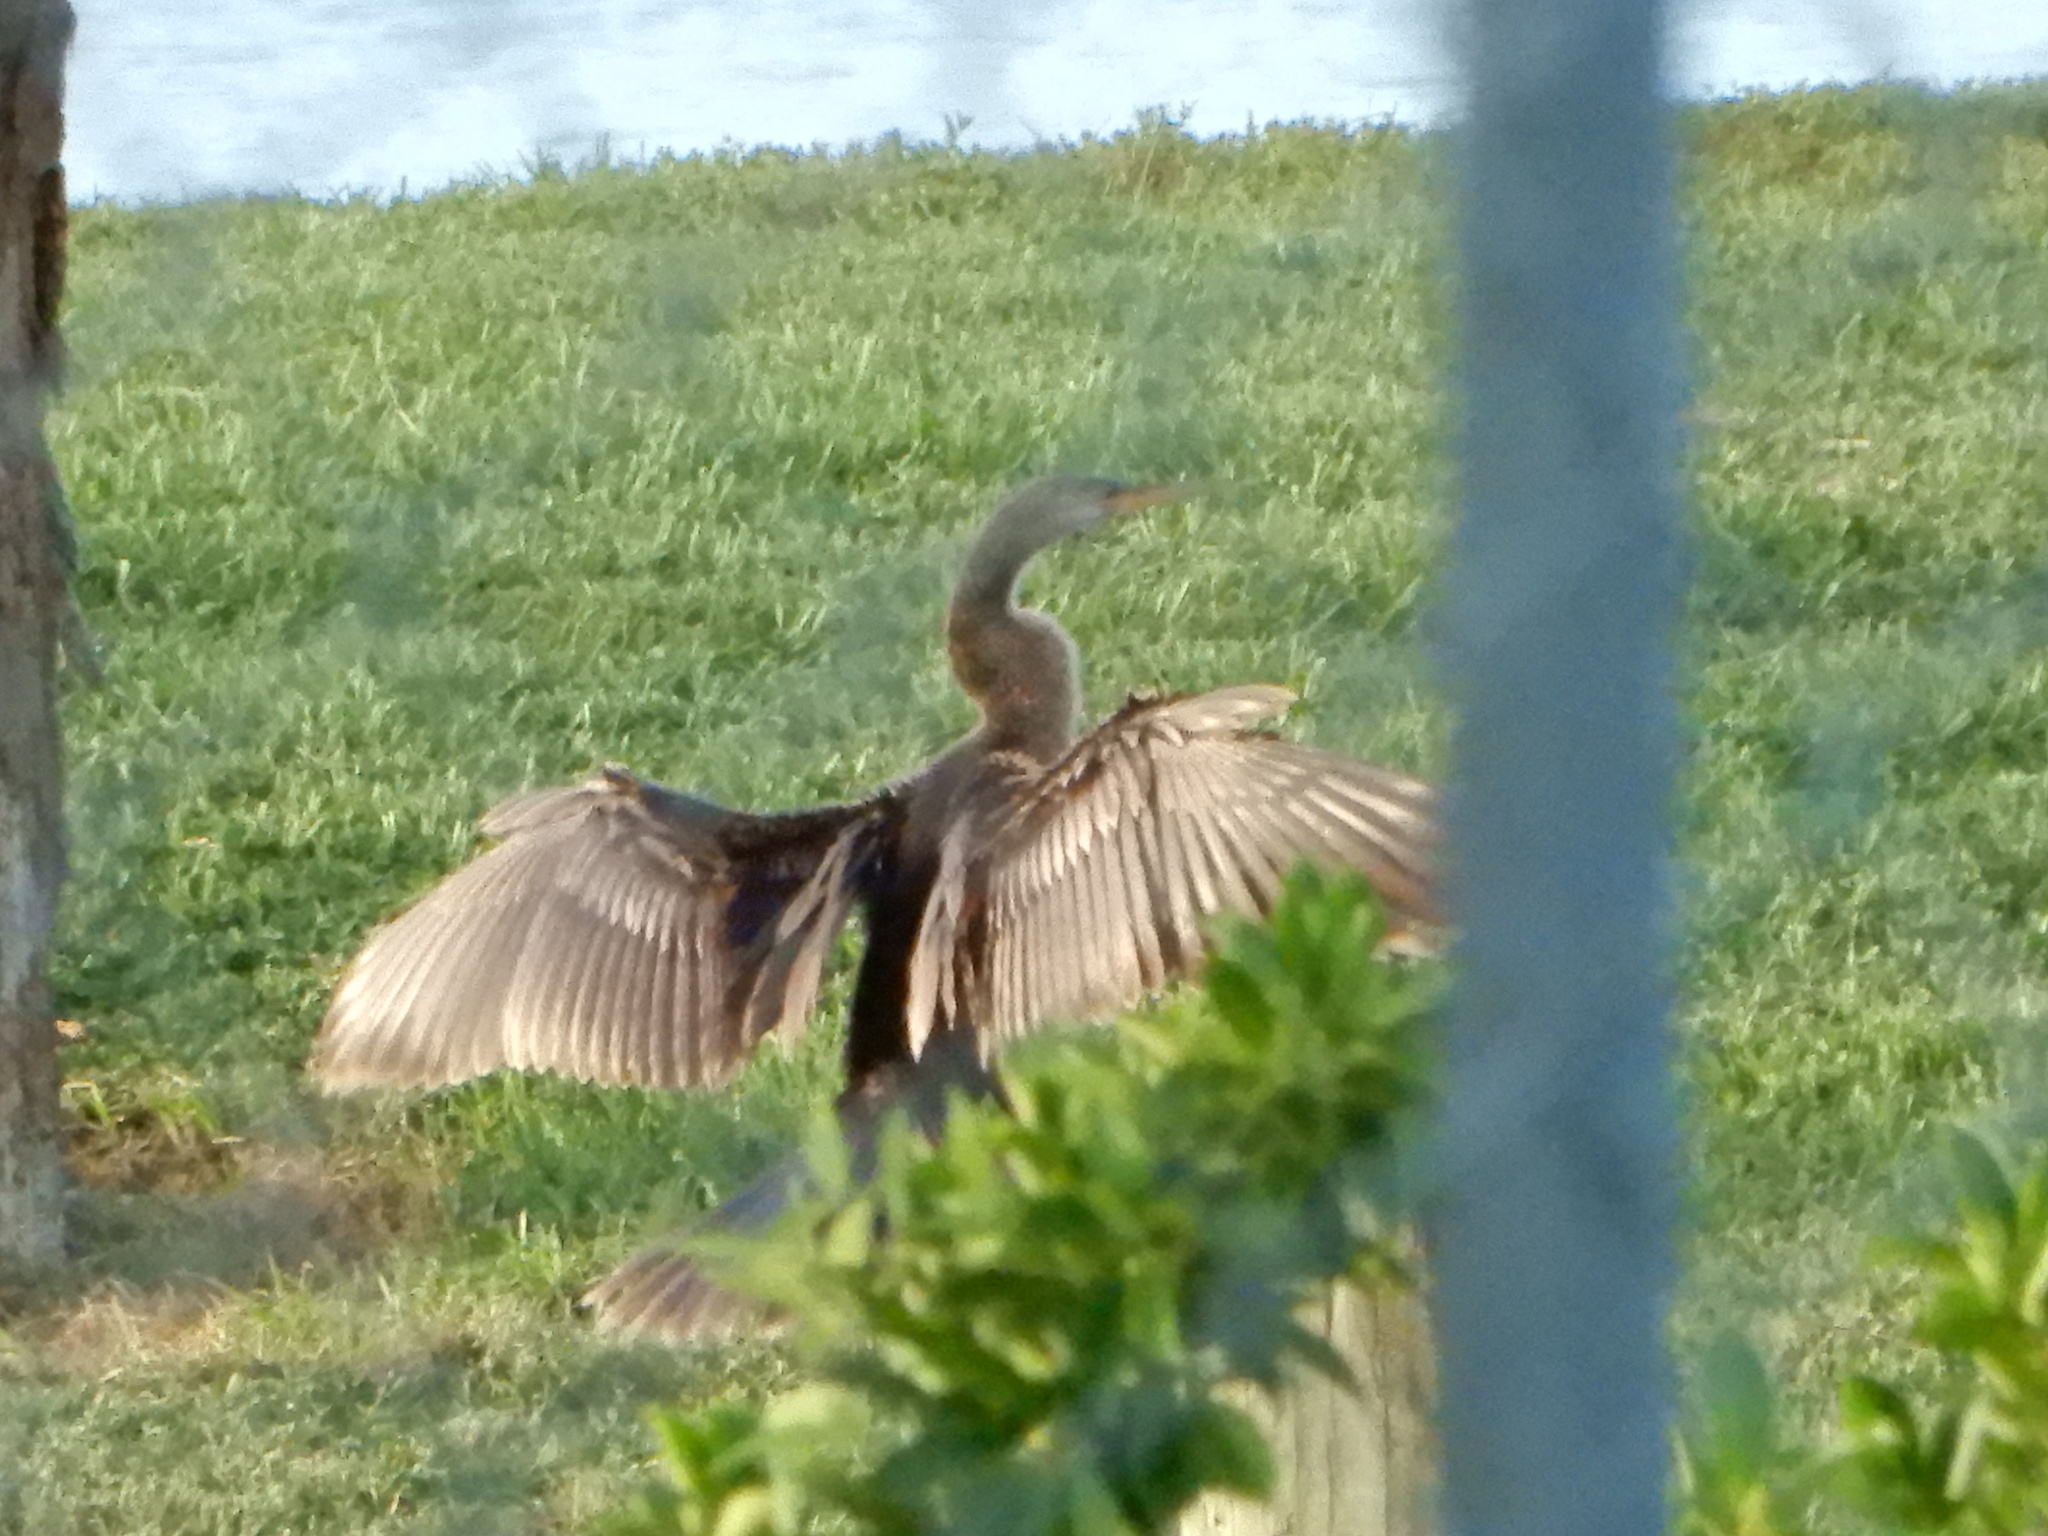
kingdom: Animalia
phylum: Chordata
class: Aves
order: Suliformes
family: Anhingidae
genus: Anhinga
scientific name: Anhinga anhinga
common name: Anhinga
